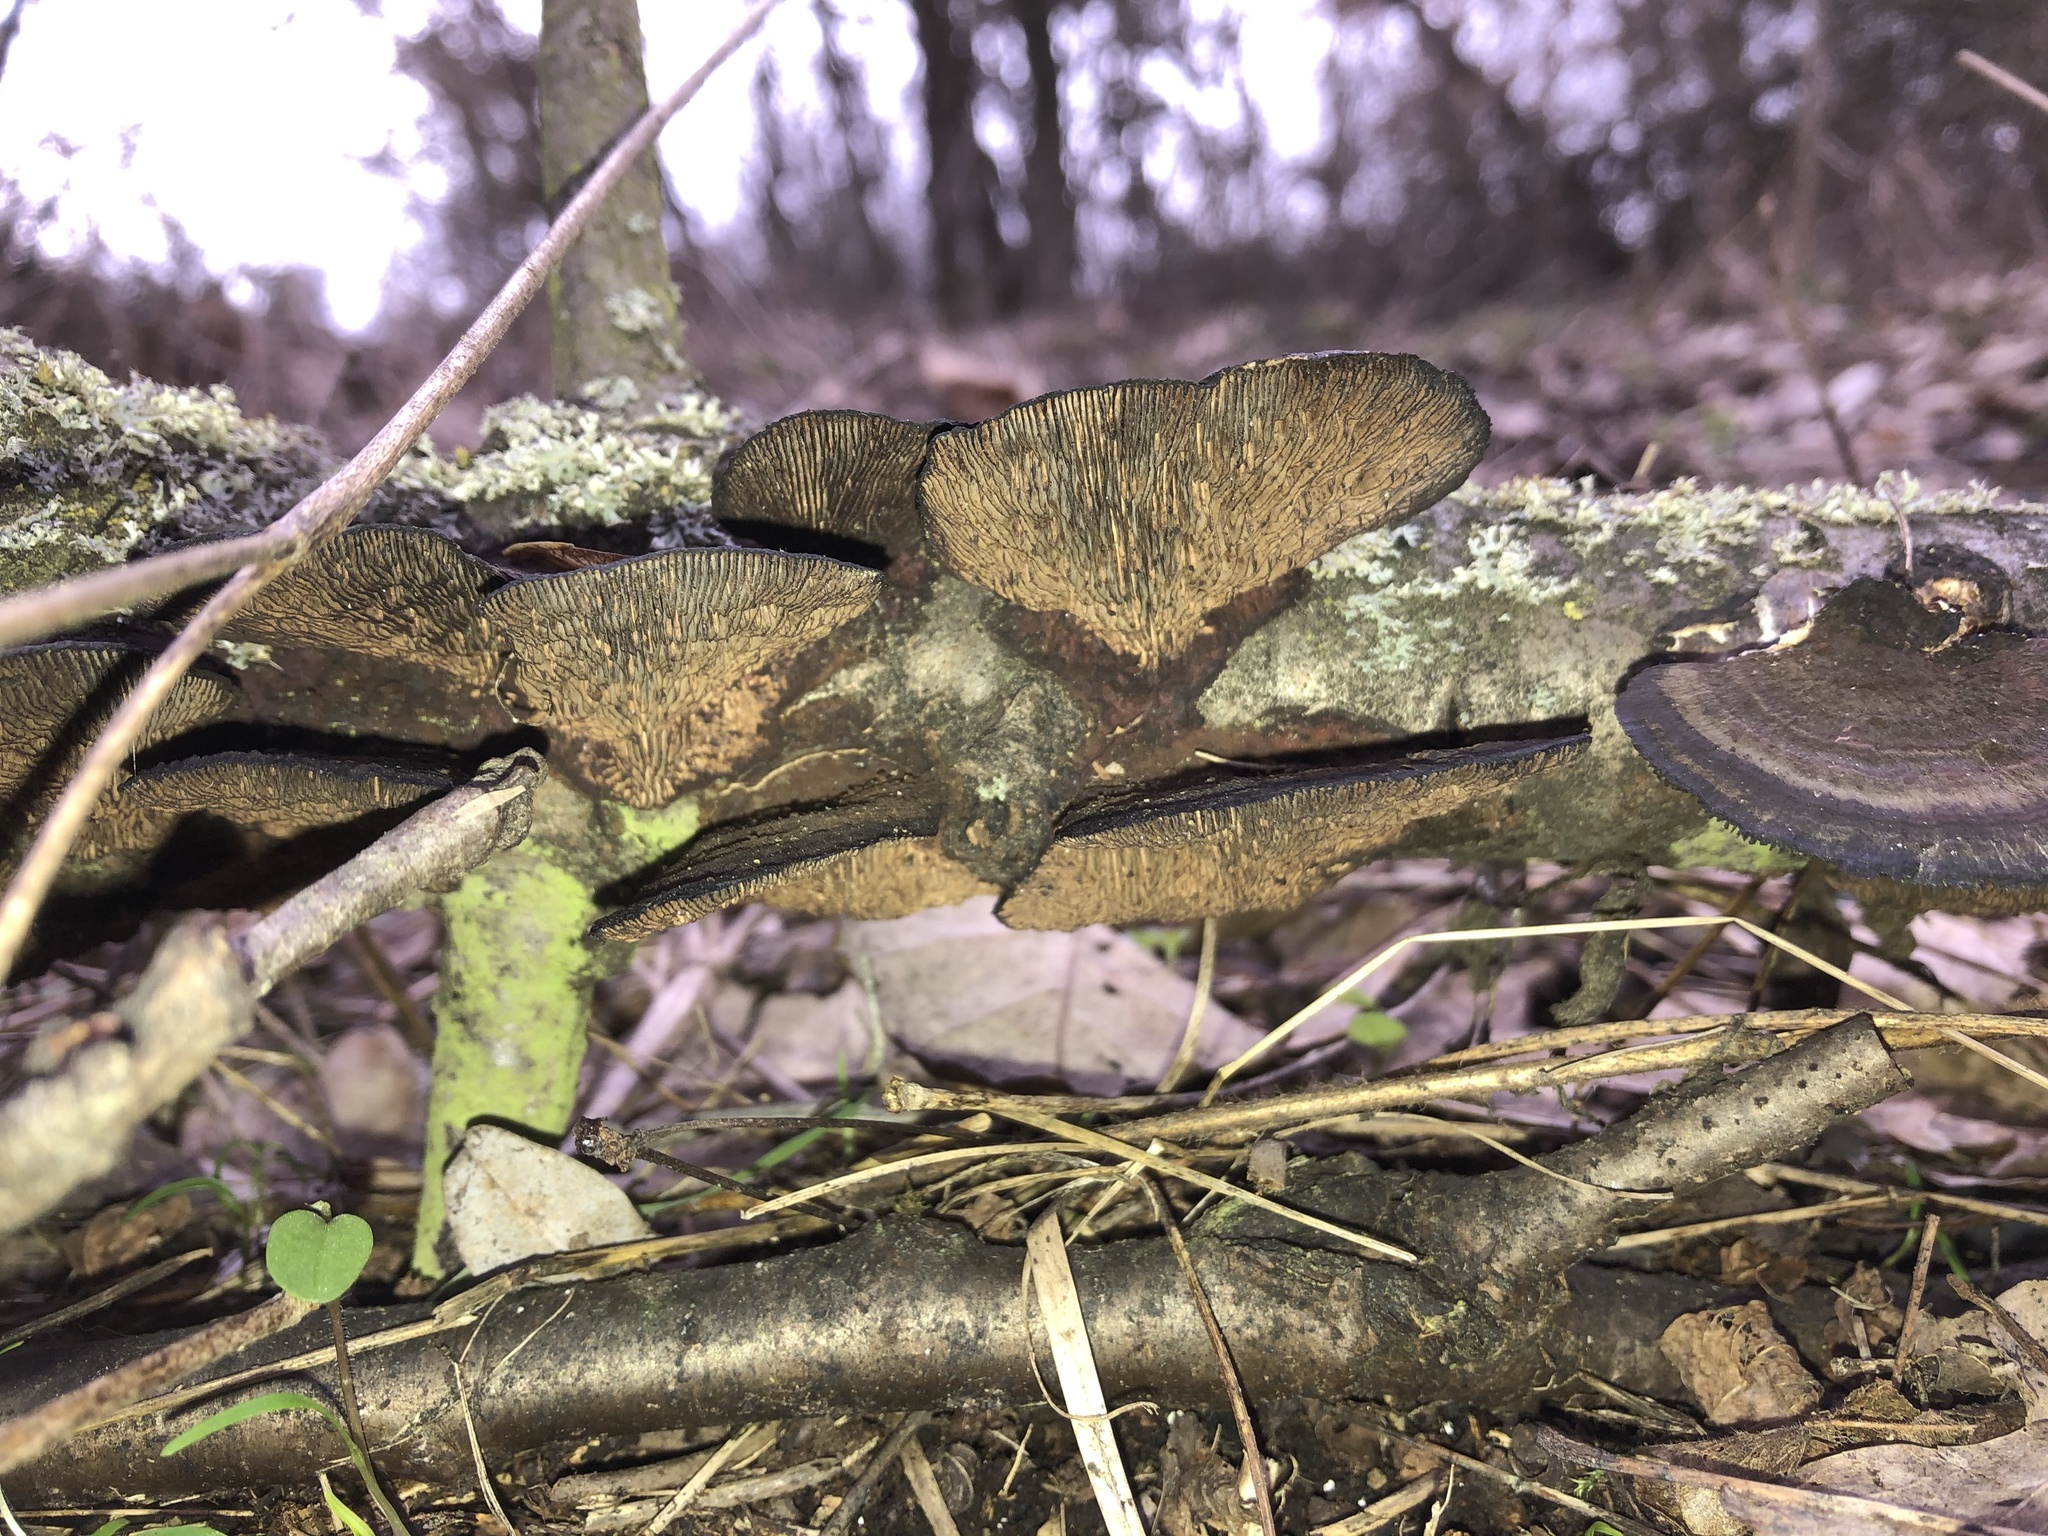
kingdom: Fungi
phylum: Basidiomycota
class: Agaricomycetes
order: Polyporales
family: Polyporaceae
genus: Daedaleopsis
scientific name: Daedaleopsis tricolor
